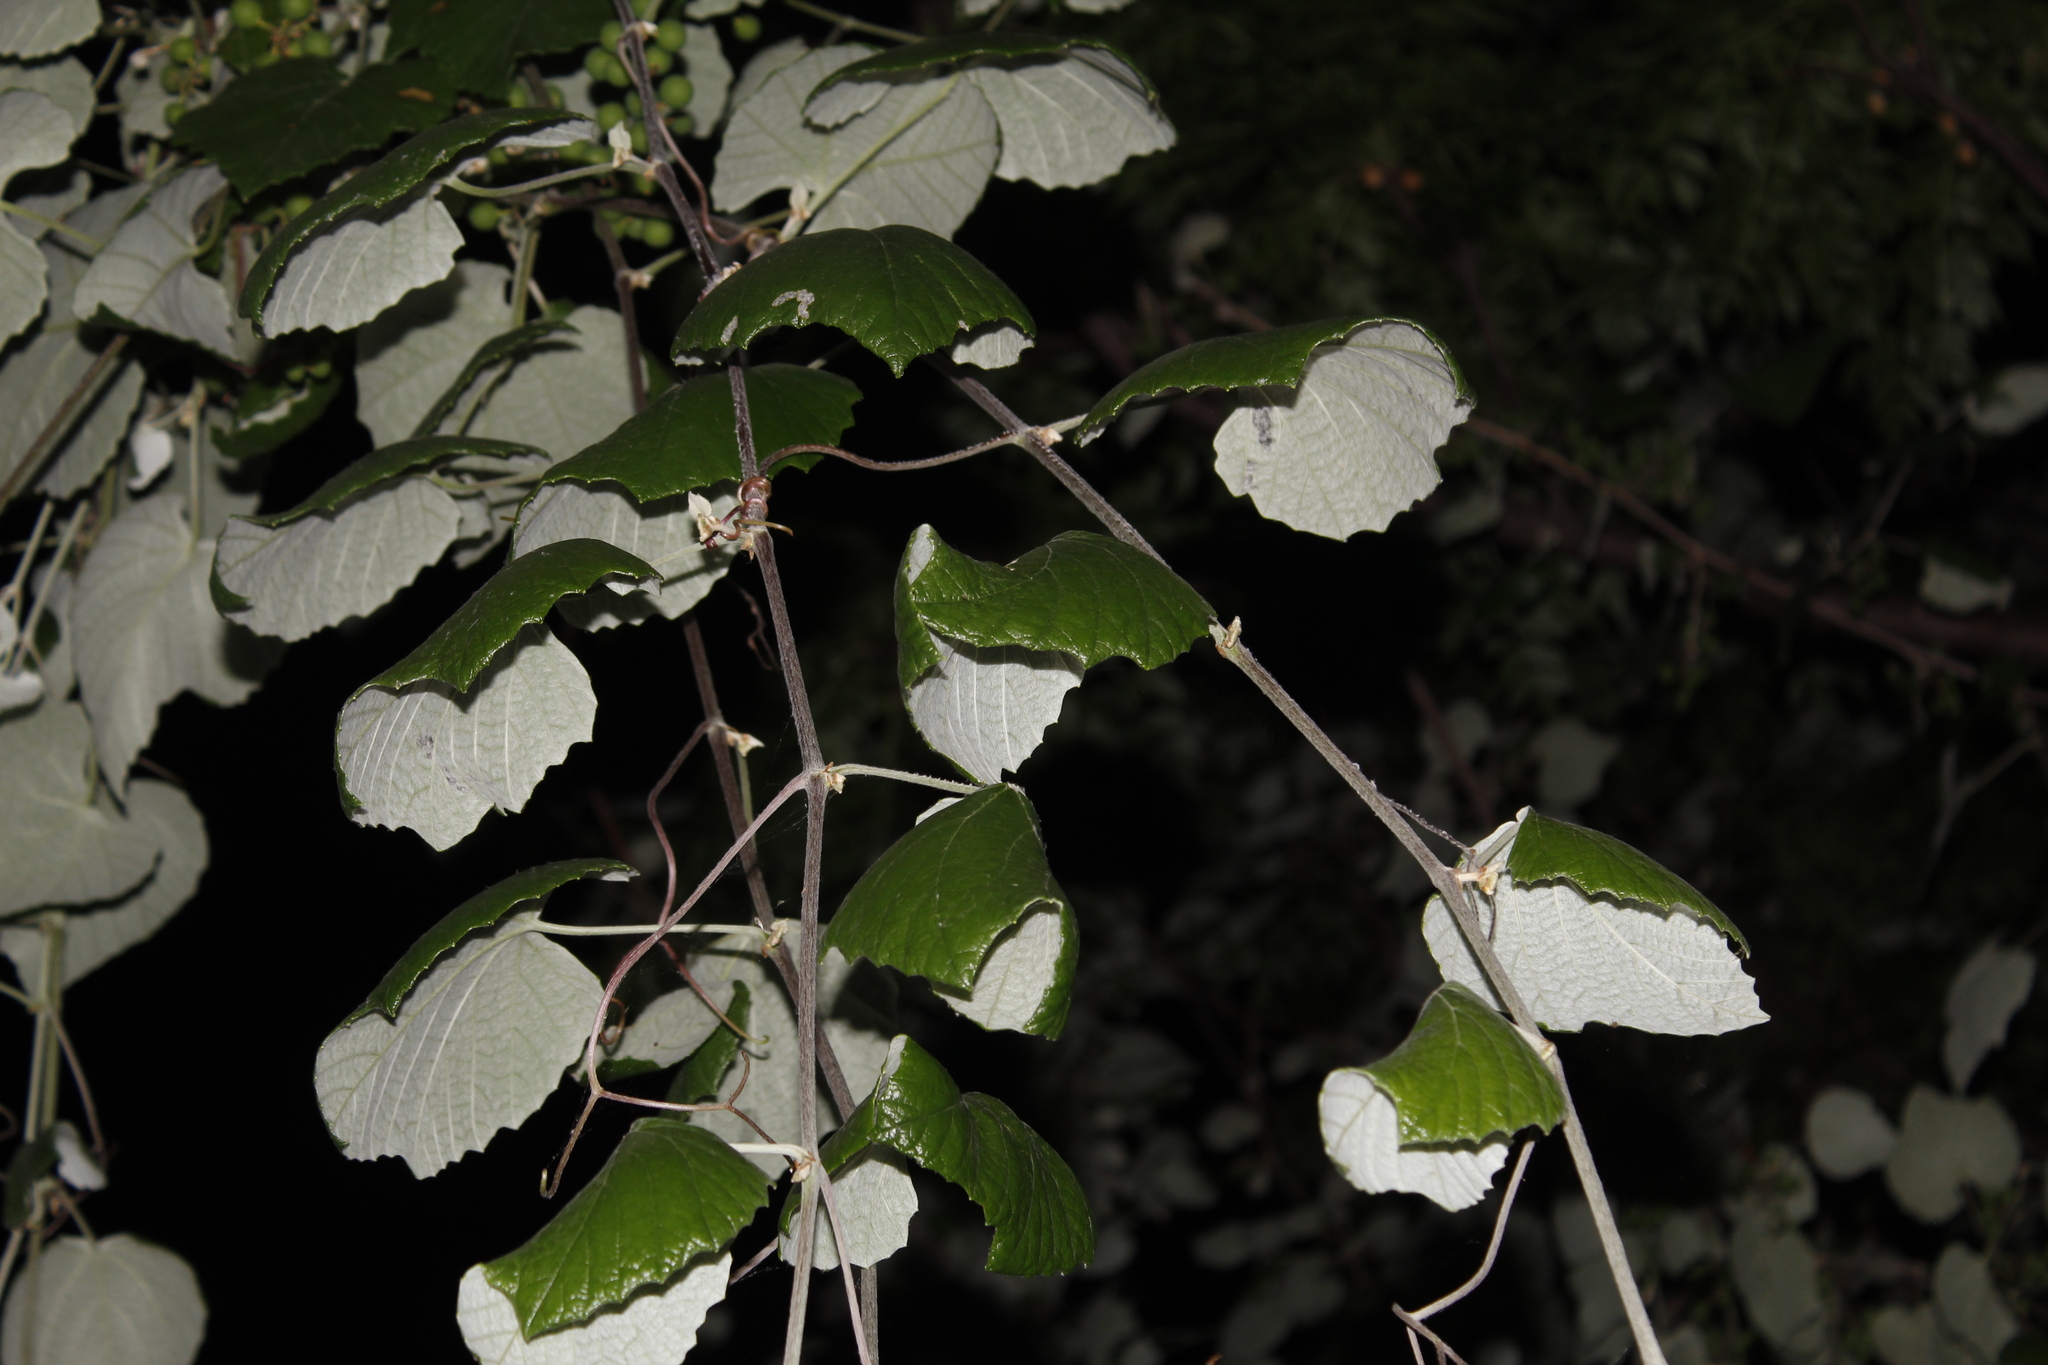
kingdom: Plantae
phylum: Tracheophyta
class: Magnoliopsida
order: Vitales
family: Vitaceae
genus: Vitis
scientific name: Vitis mustangensis
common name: Mustang grape
